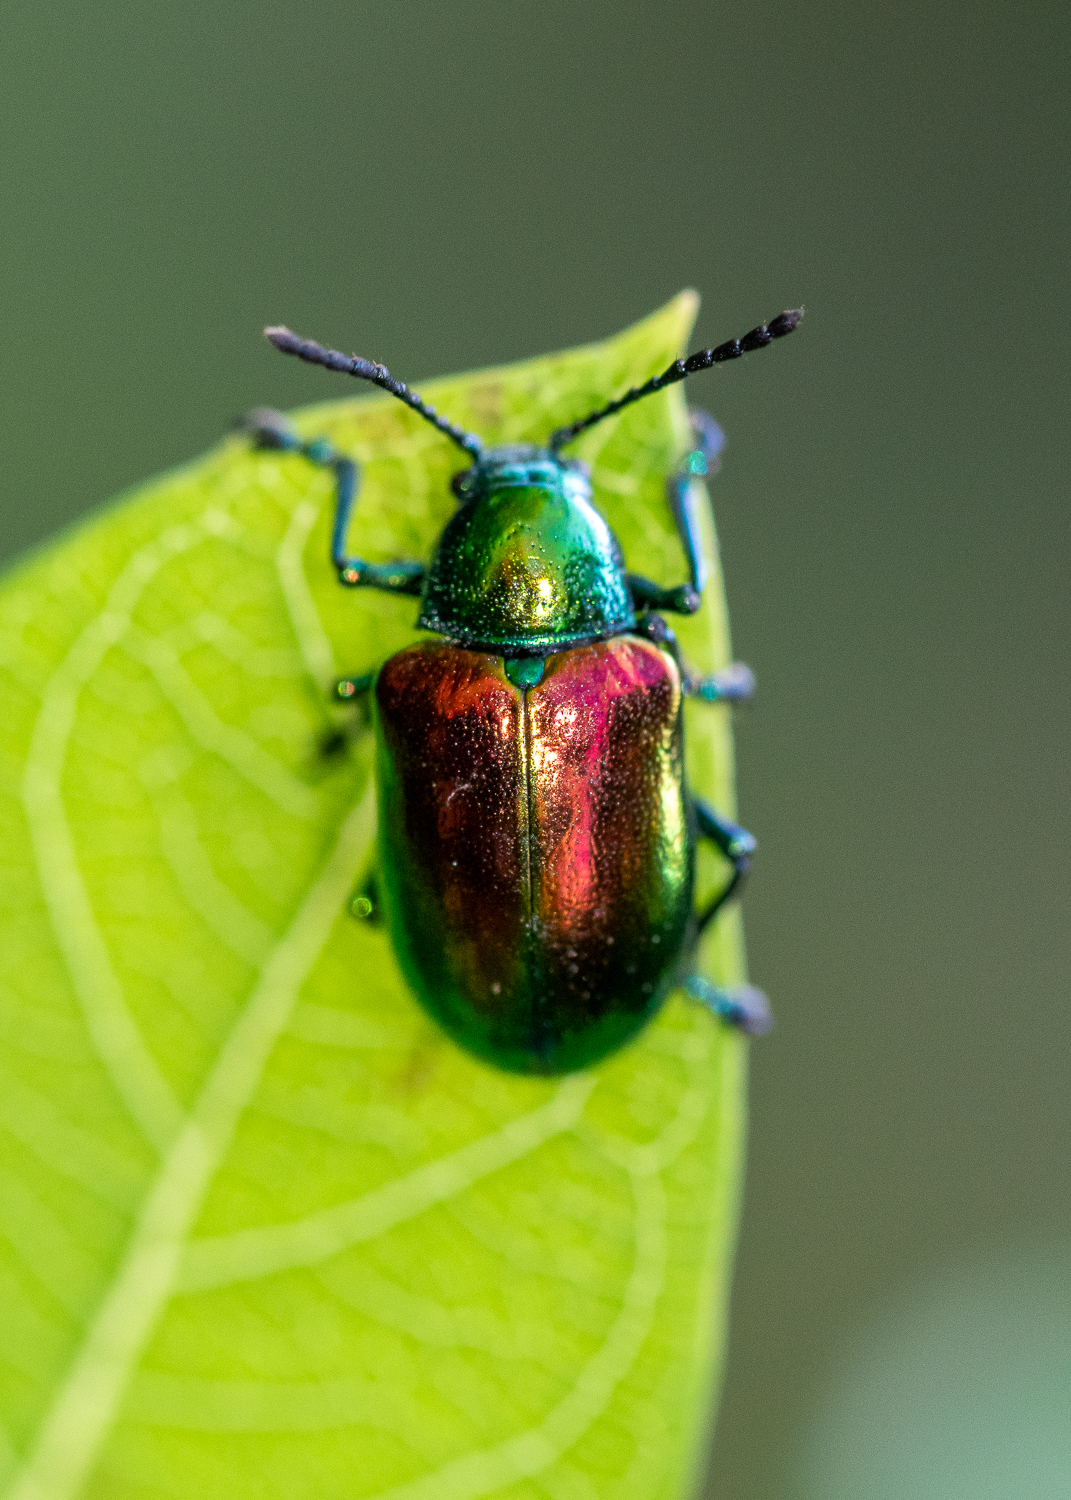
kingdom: Animalia
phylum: Arthropoda
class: Insecta
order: Coleoptera
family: Chrysomelidae
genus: Chrysochus
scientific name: Chrysochus auratus
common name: Dogbane leaf beetle
